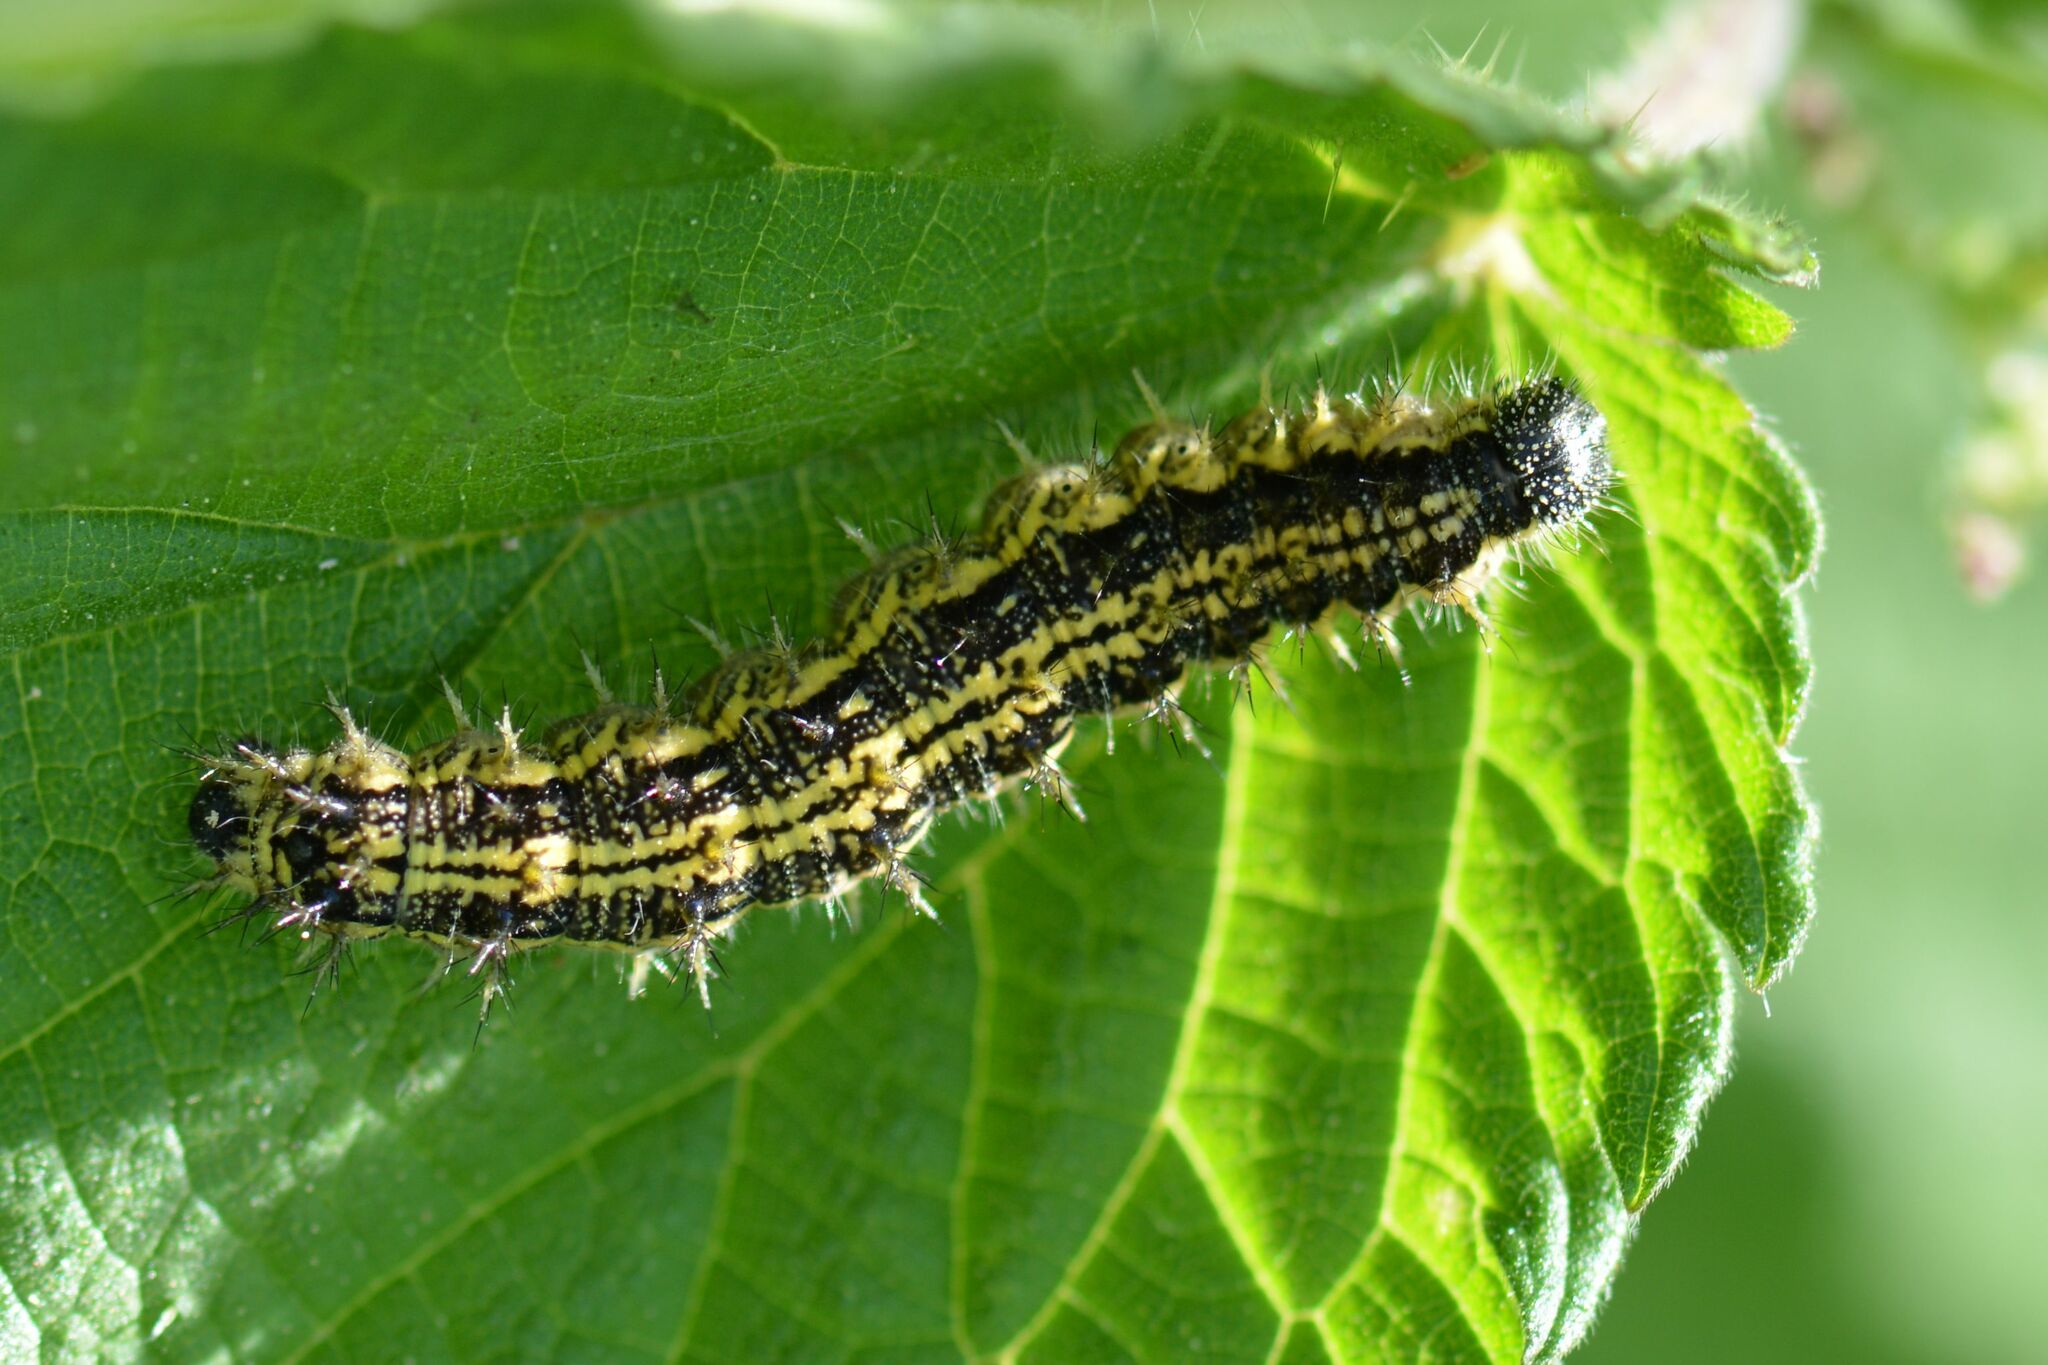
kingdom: Animalia
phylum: Arthropoda
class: Insecta
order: Lepidoptera
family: Nymphalidae
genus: Aglais
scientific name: Aglais urticae
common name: Small tortoiseshell
